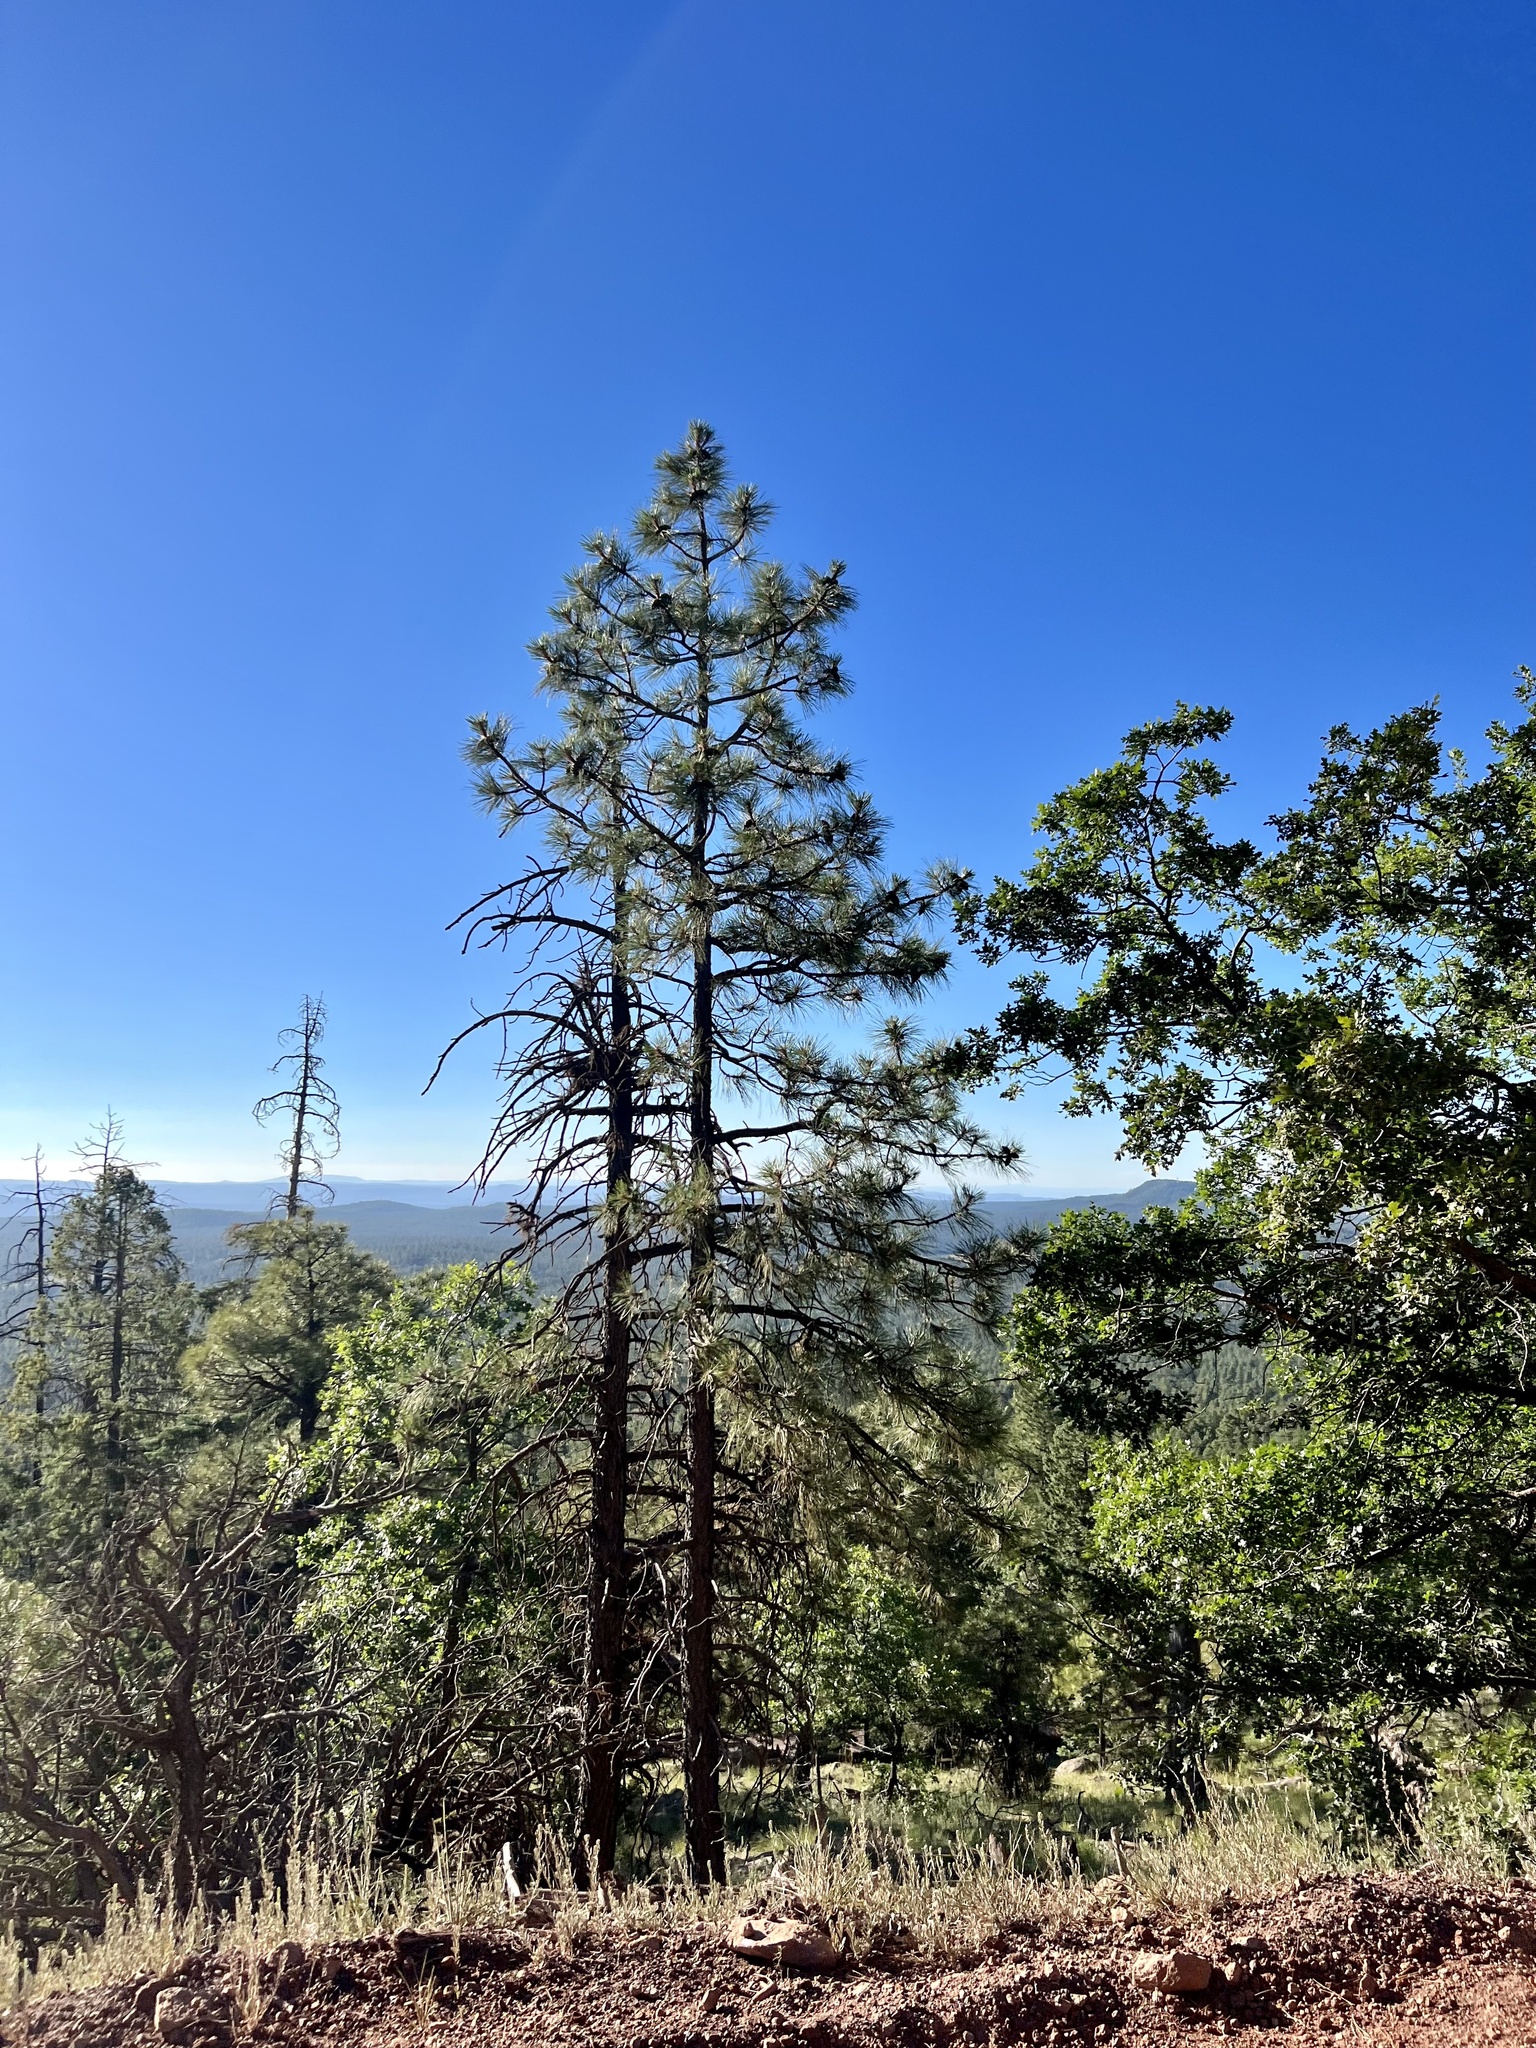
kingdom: Plantae
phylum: Tracheophyta
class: Pinopsida
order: Pinales
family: Pinaceae
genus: Pinus
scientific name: Pinus ponderosa
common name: Western yellow-pine
